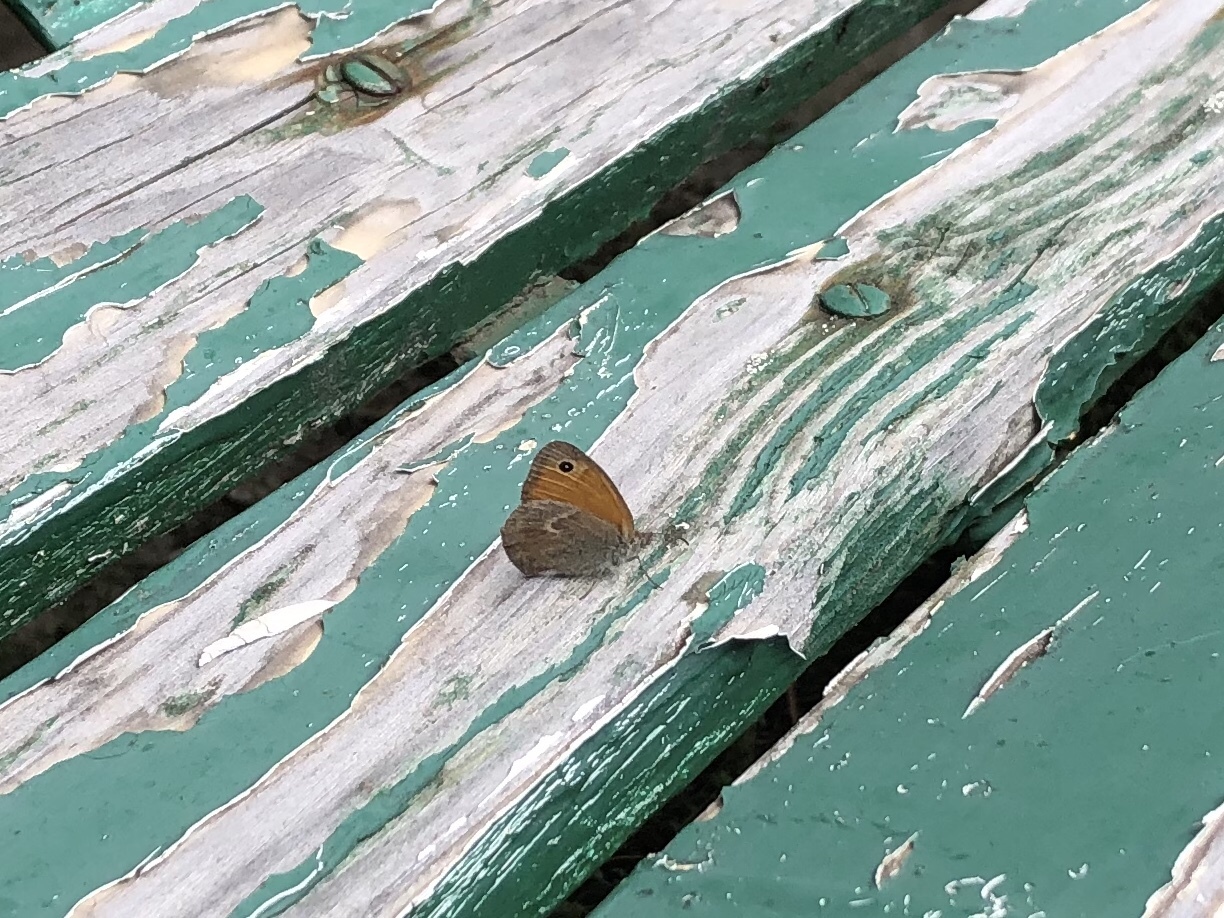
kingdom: Animalia
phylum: Arthropoda
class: Insecta
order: Lepidoptera
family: Nymphalidae
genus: Coenonympha
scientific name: Coenonympha pamphilus
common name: Small heath
